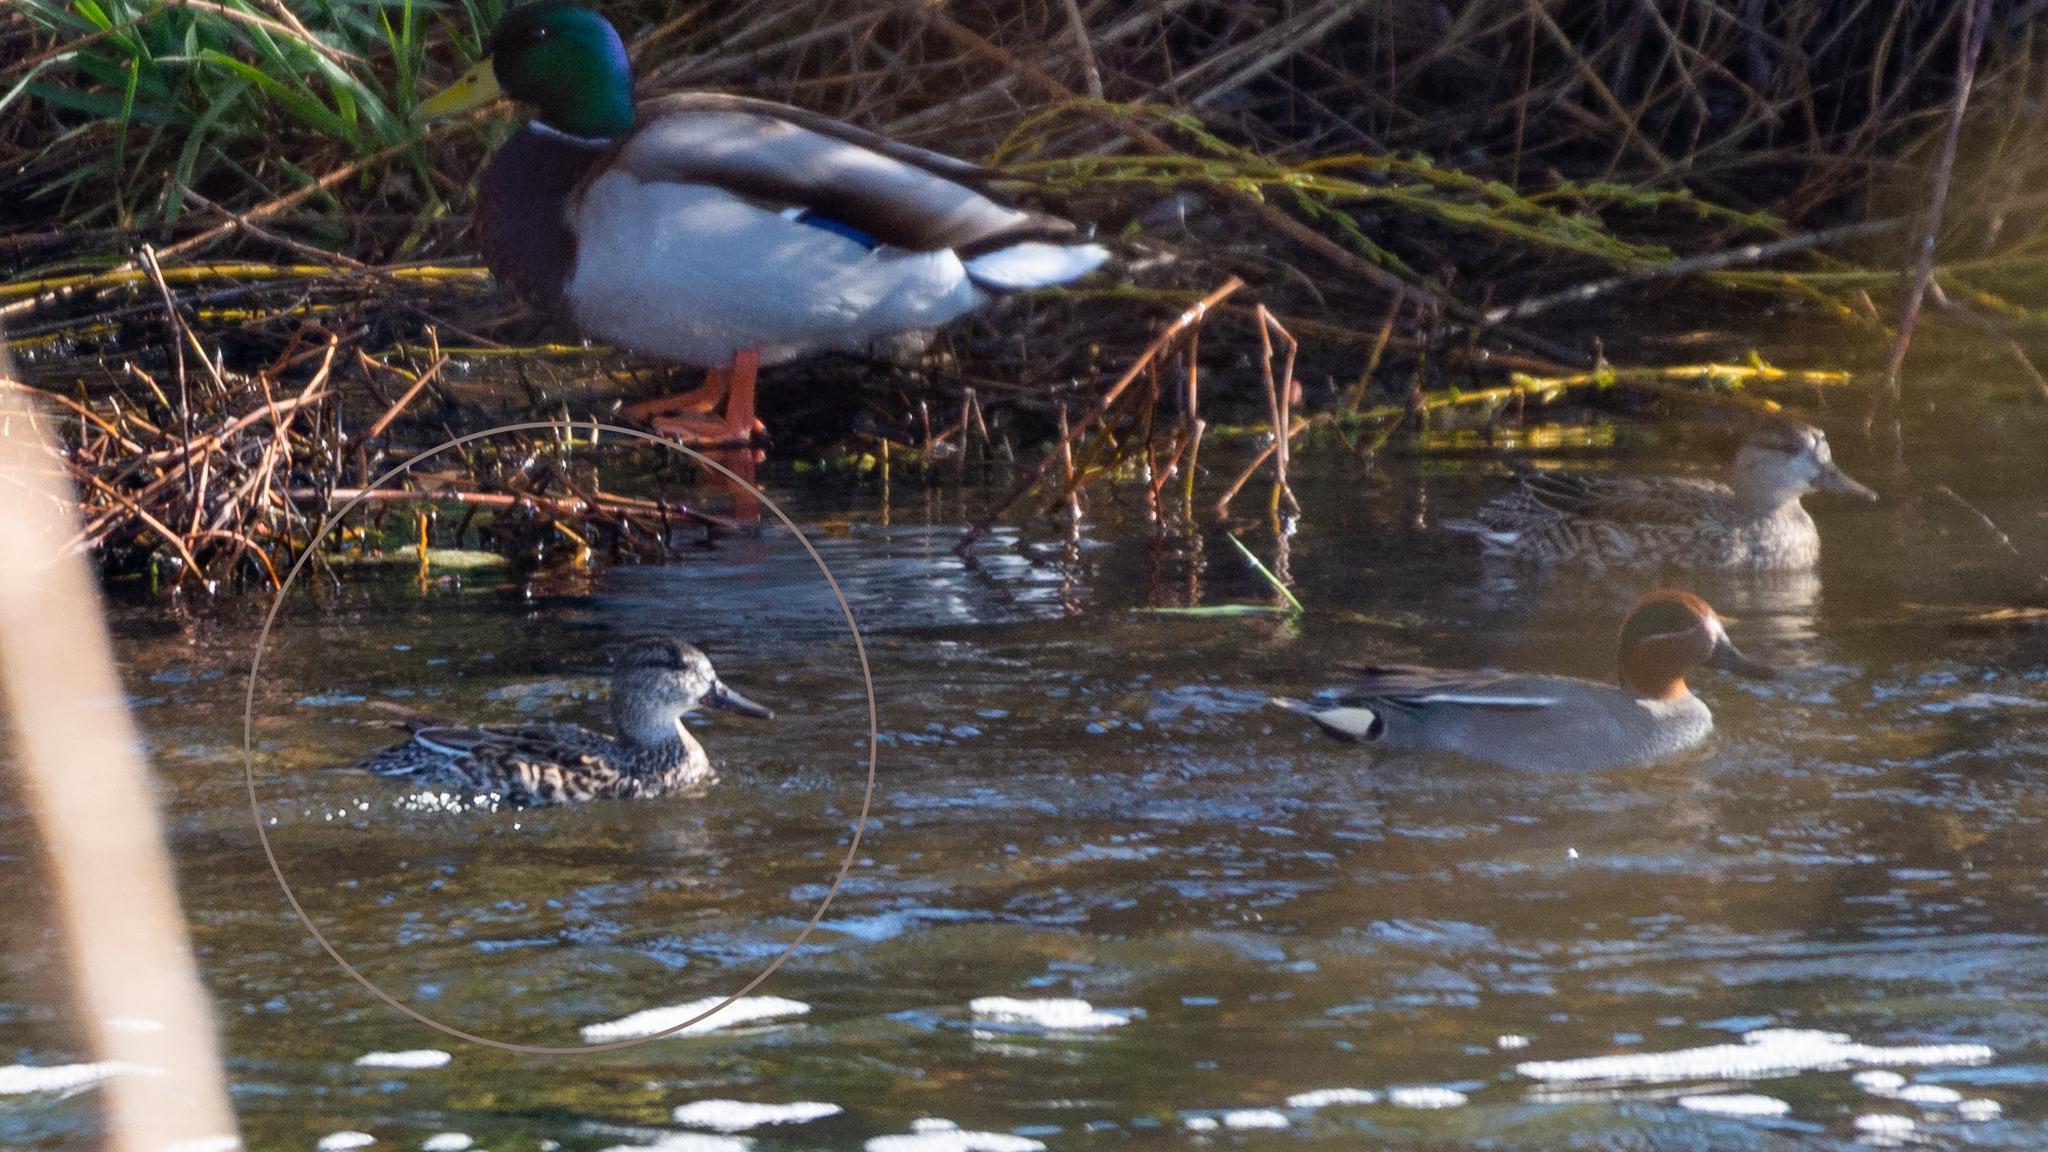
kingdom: Animalia
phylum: Chordata
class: Aves
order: Anseriformes
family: Anatidae
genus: Anas
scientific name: Anas crecca
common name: Eurasian teal
